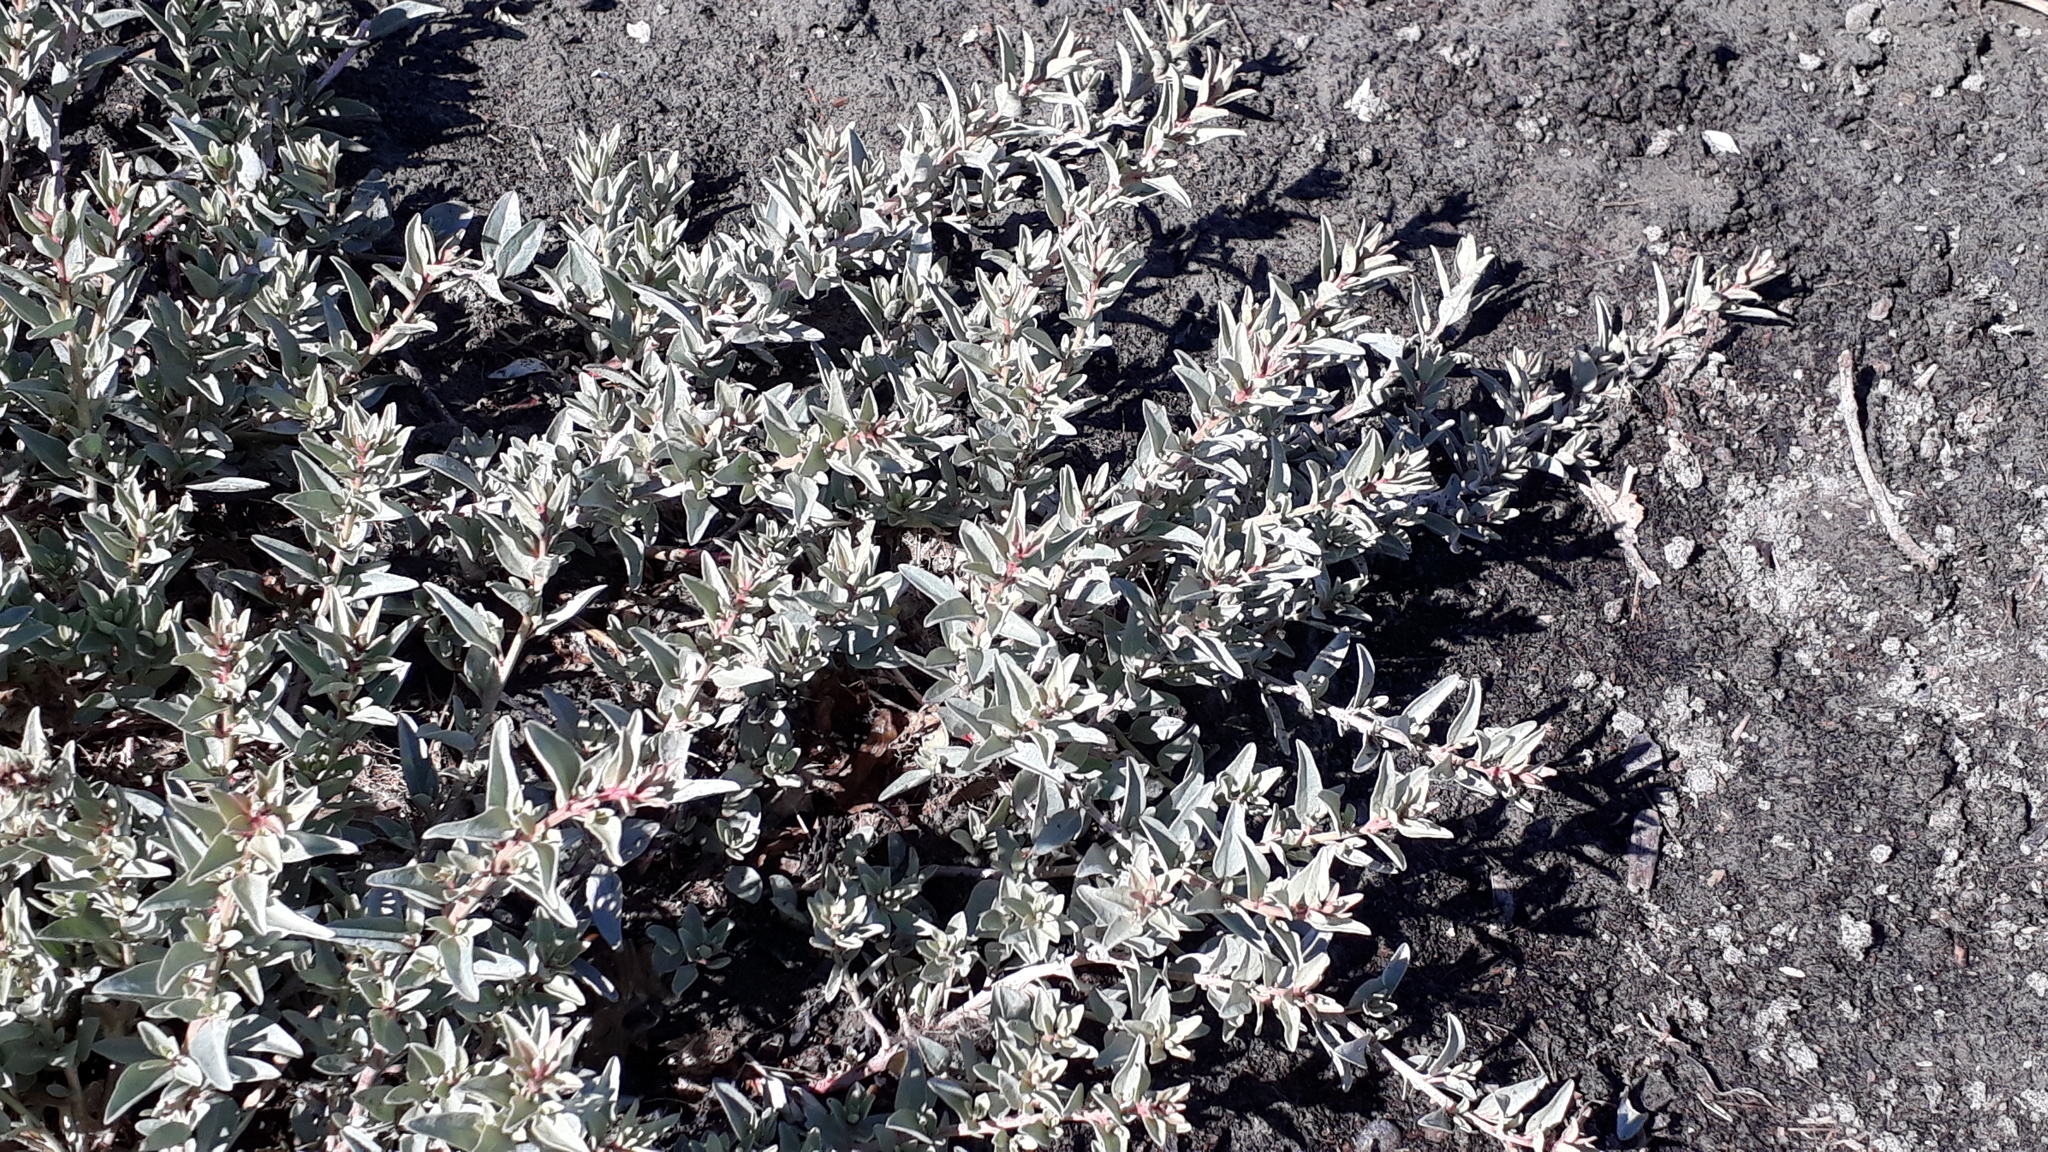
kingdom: Plantae
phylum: Tracheophyta
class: Magnoliopsida
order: Caryophyllales
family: Amaranthaceae
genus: Atriplex
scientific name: Atriplex cinerea
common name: Grey saltbush
